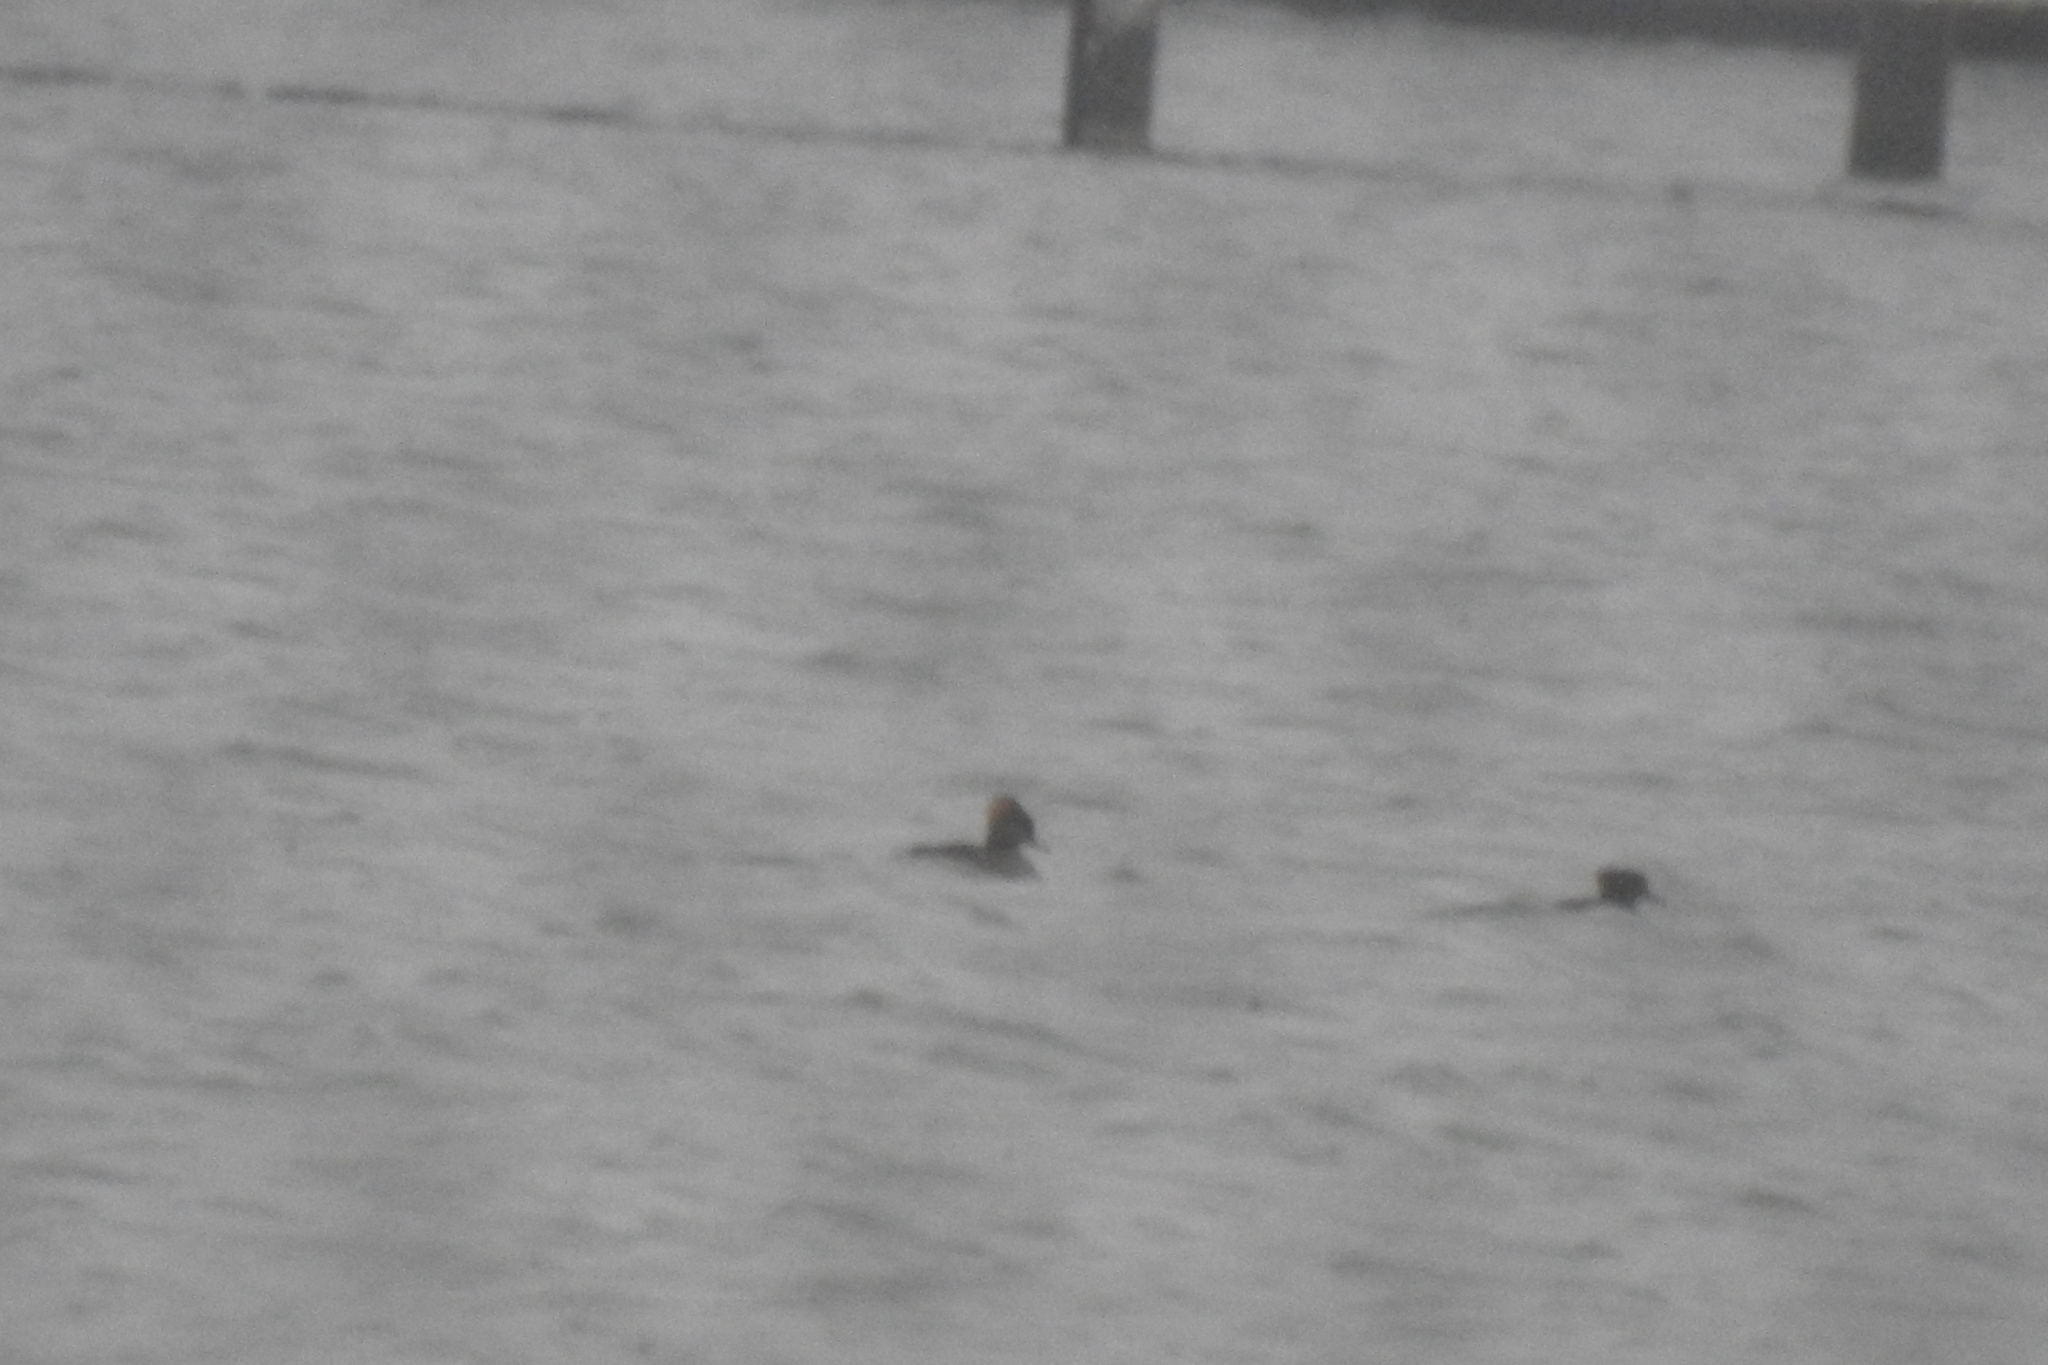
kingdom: Animalia
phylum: Chordata
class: Aves
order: Anseriformes
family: Anatidae
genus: Lophodytes
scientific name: Lophodytes cucullatus
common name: Hooded merganser
